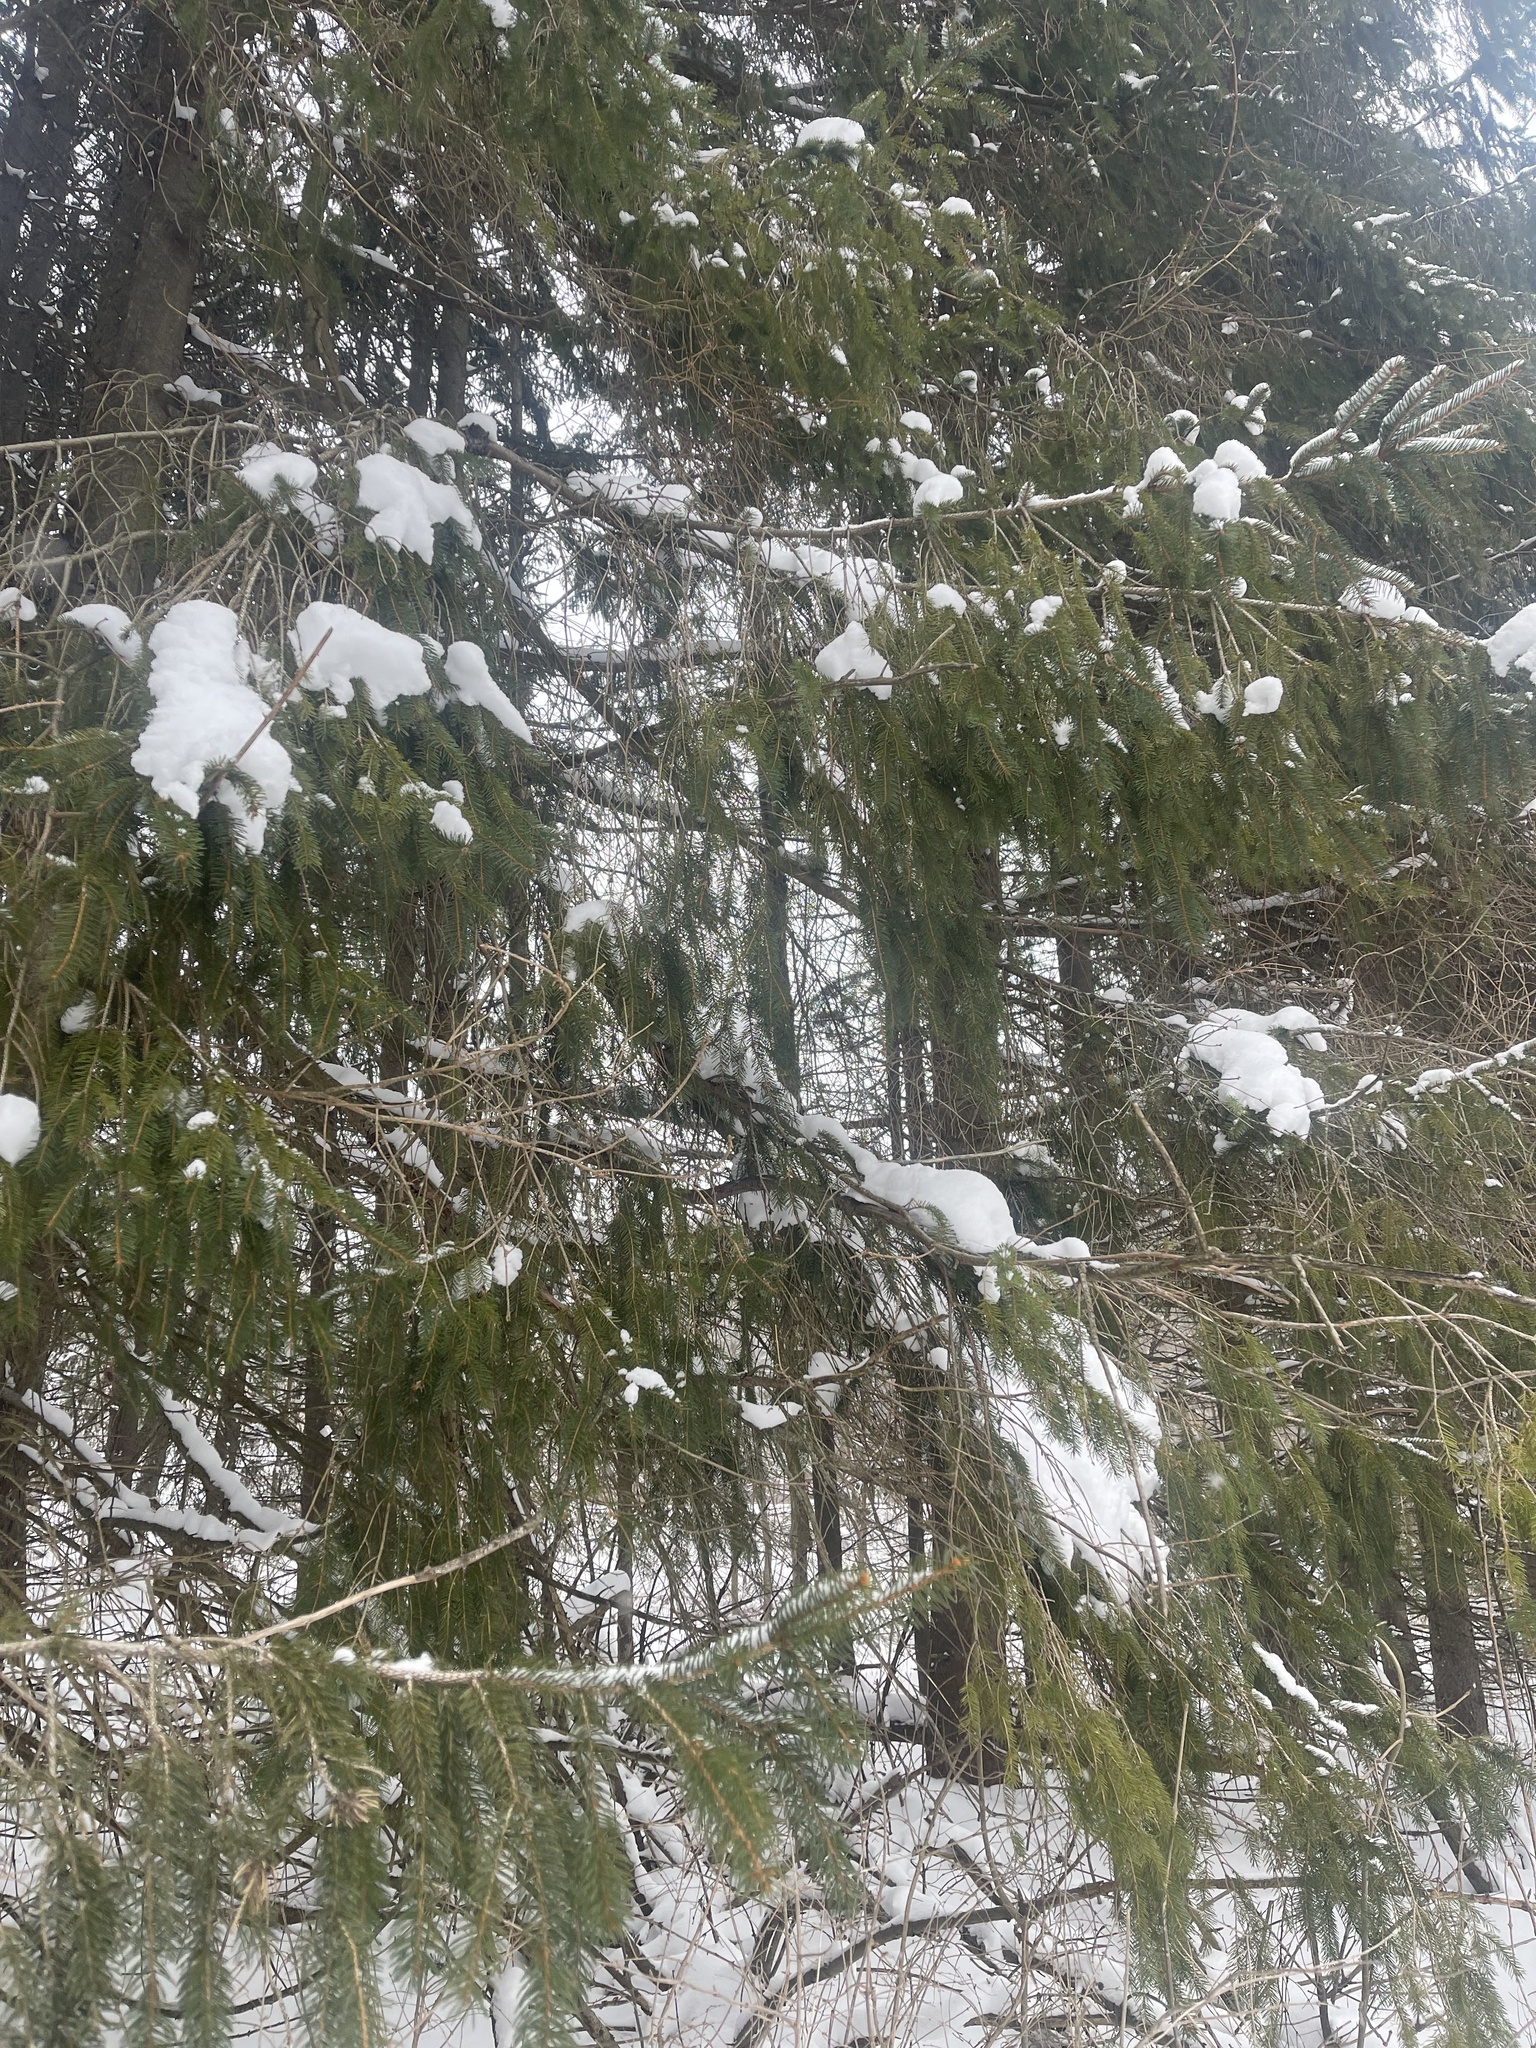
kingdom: Plantae
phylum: Tracheophyta
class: Pinopsida
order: Pinales
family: Pinaceae
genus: Picea
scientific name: Picea abies
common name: Norway spruce
